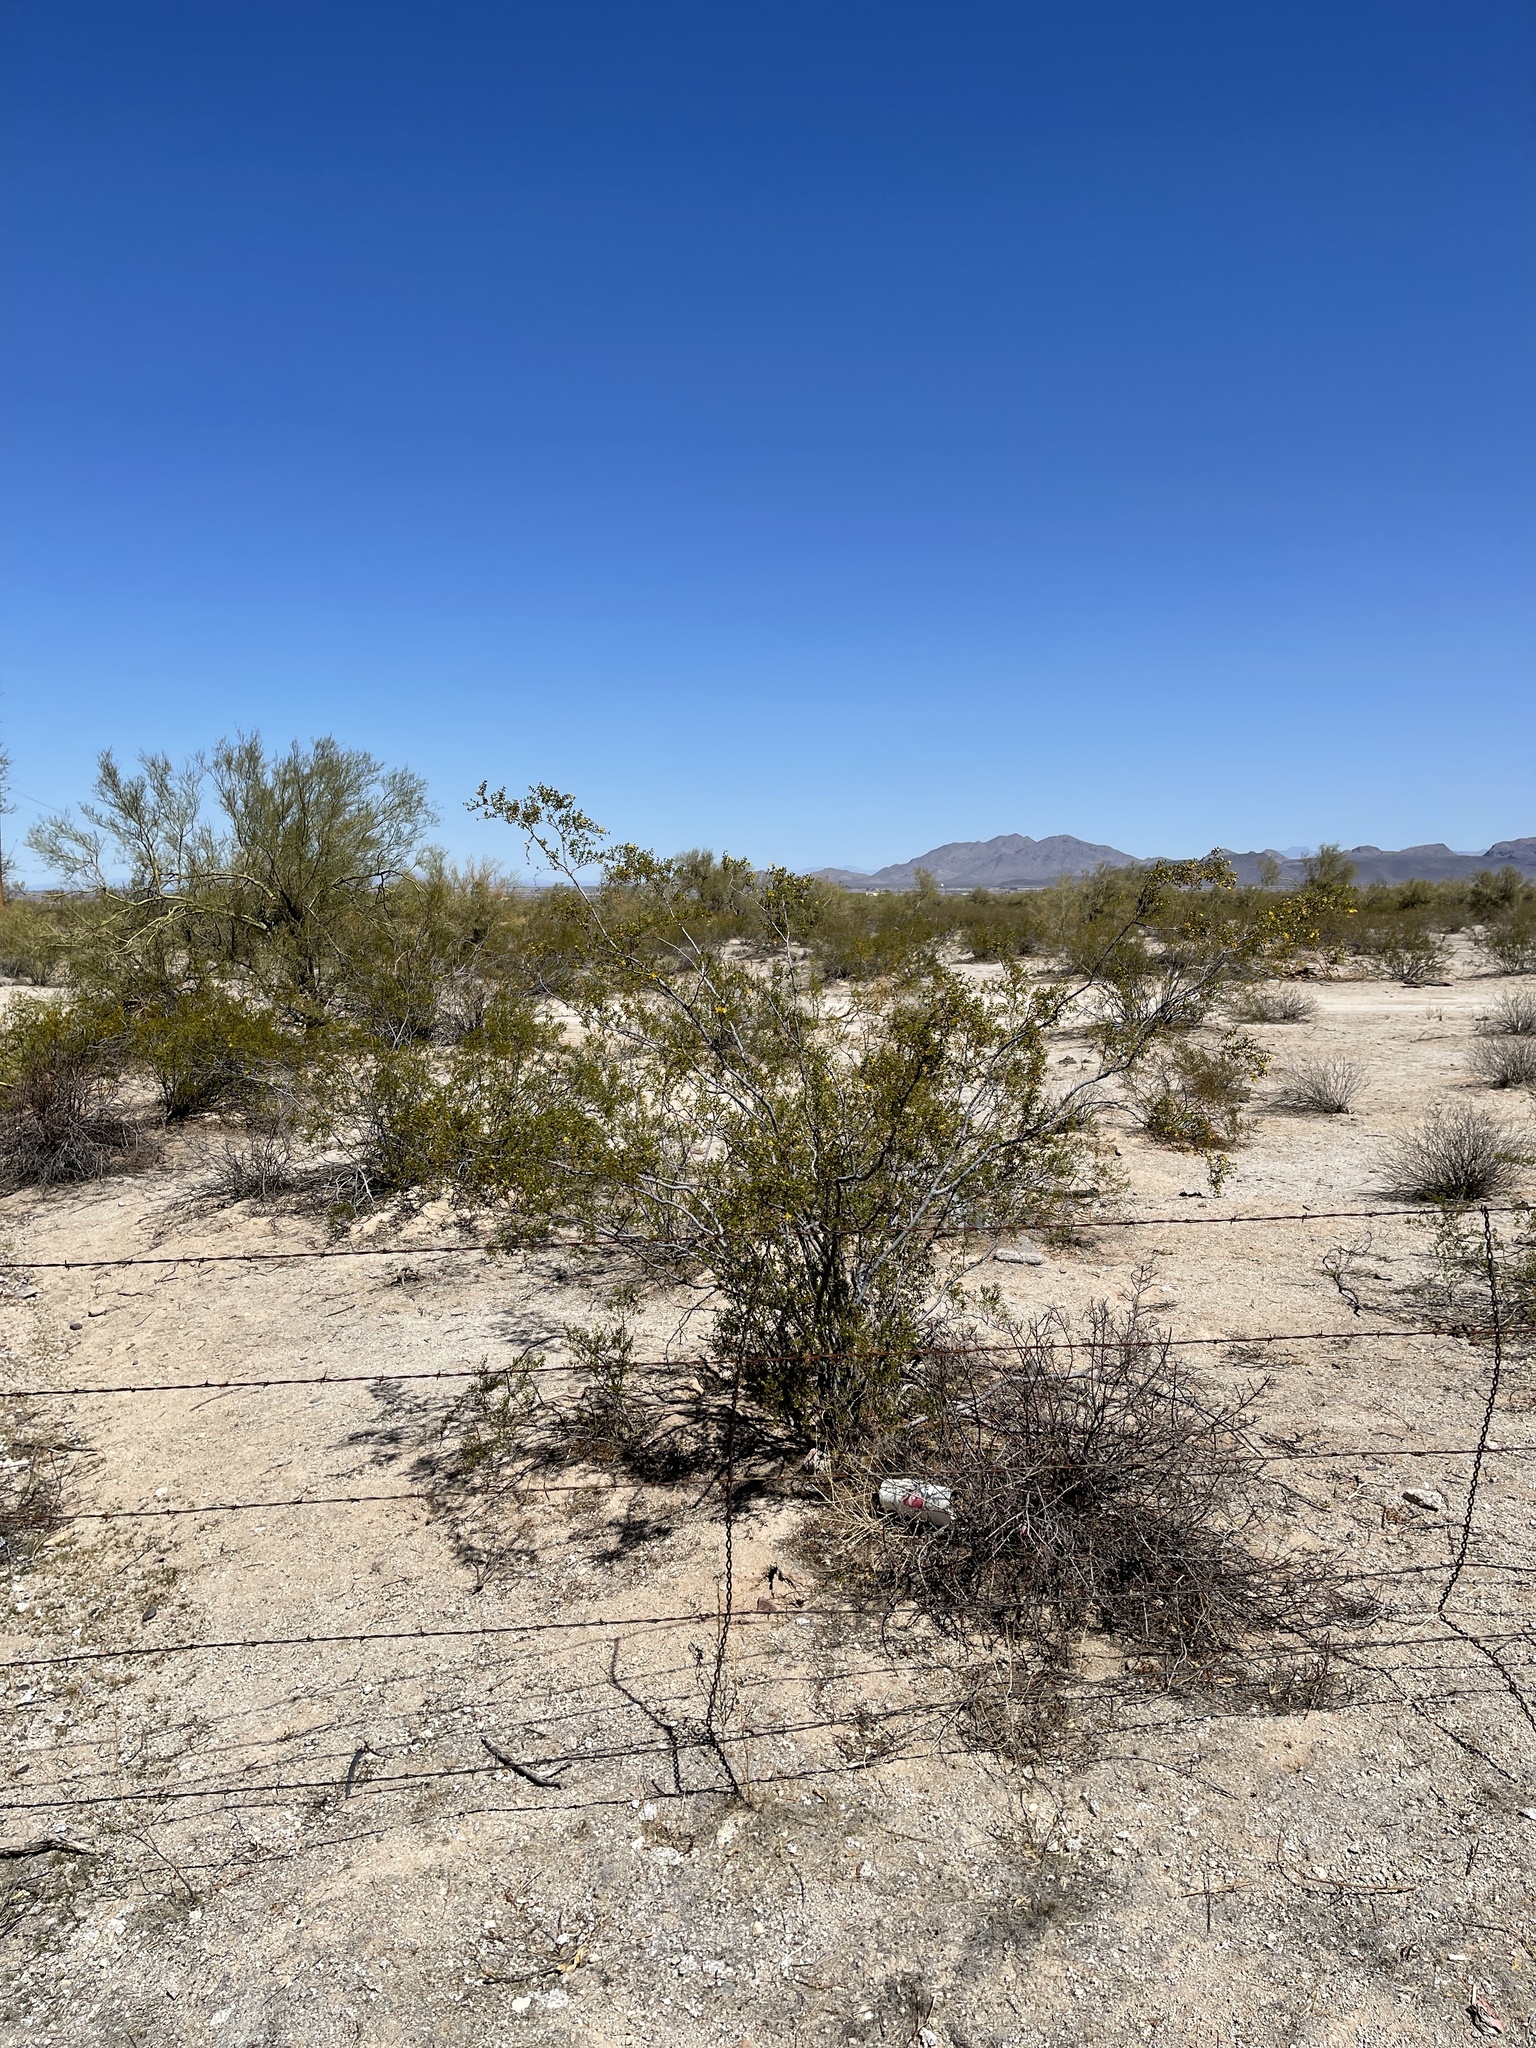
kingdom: Plantae
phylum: Tracheophyta
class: Magnoliopsida
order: Zygophyllales
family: Zygophyllaceae
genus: Larrea
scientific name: Larrea tridentata
